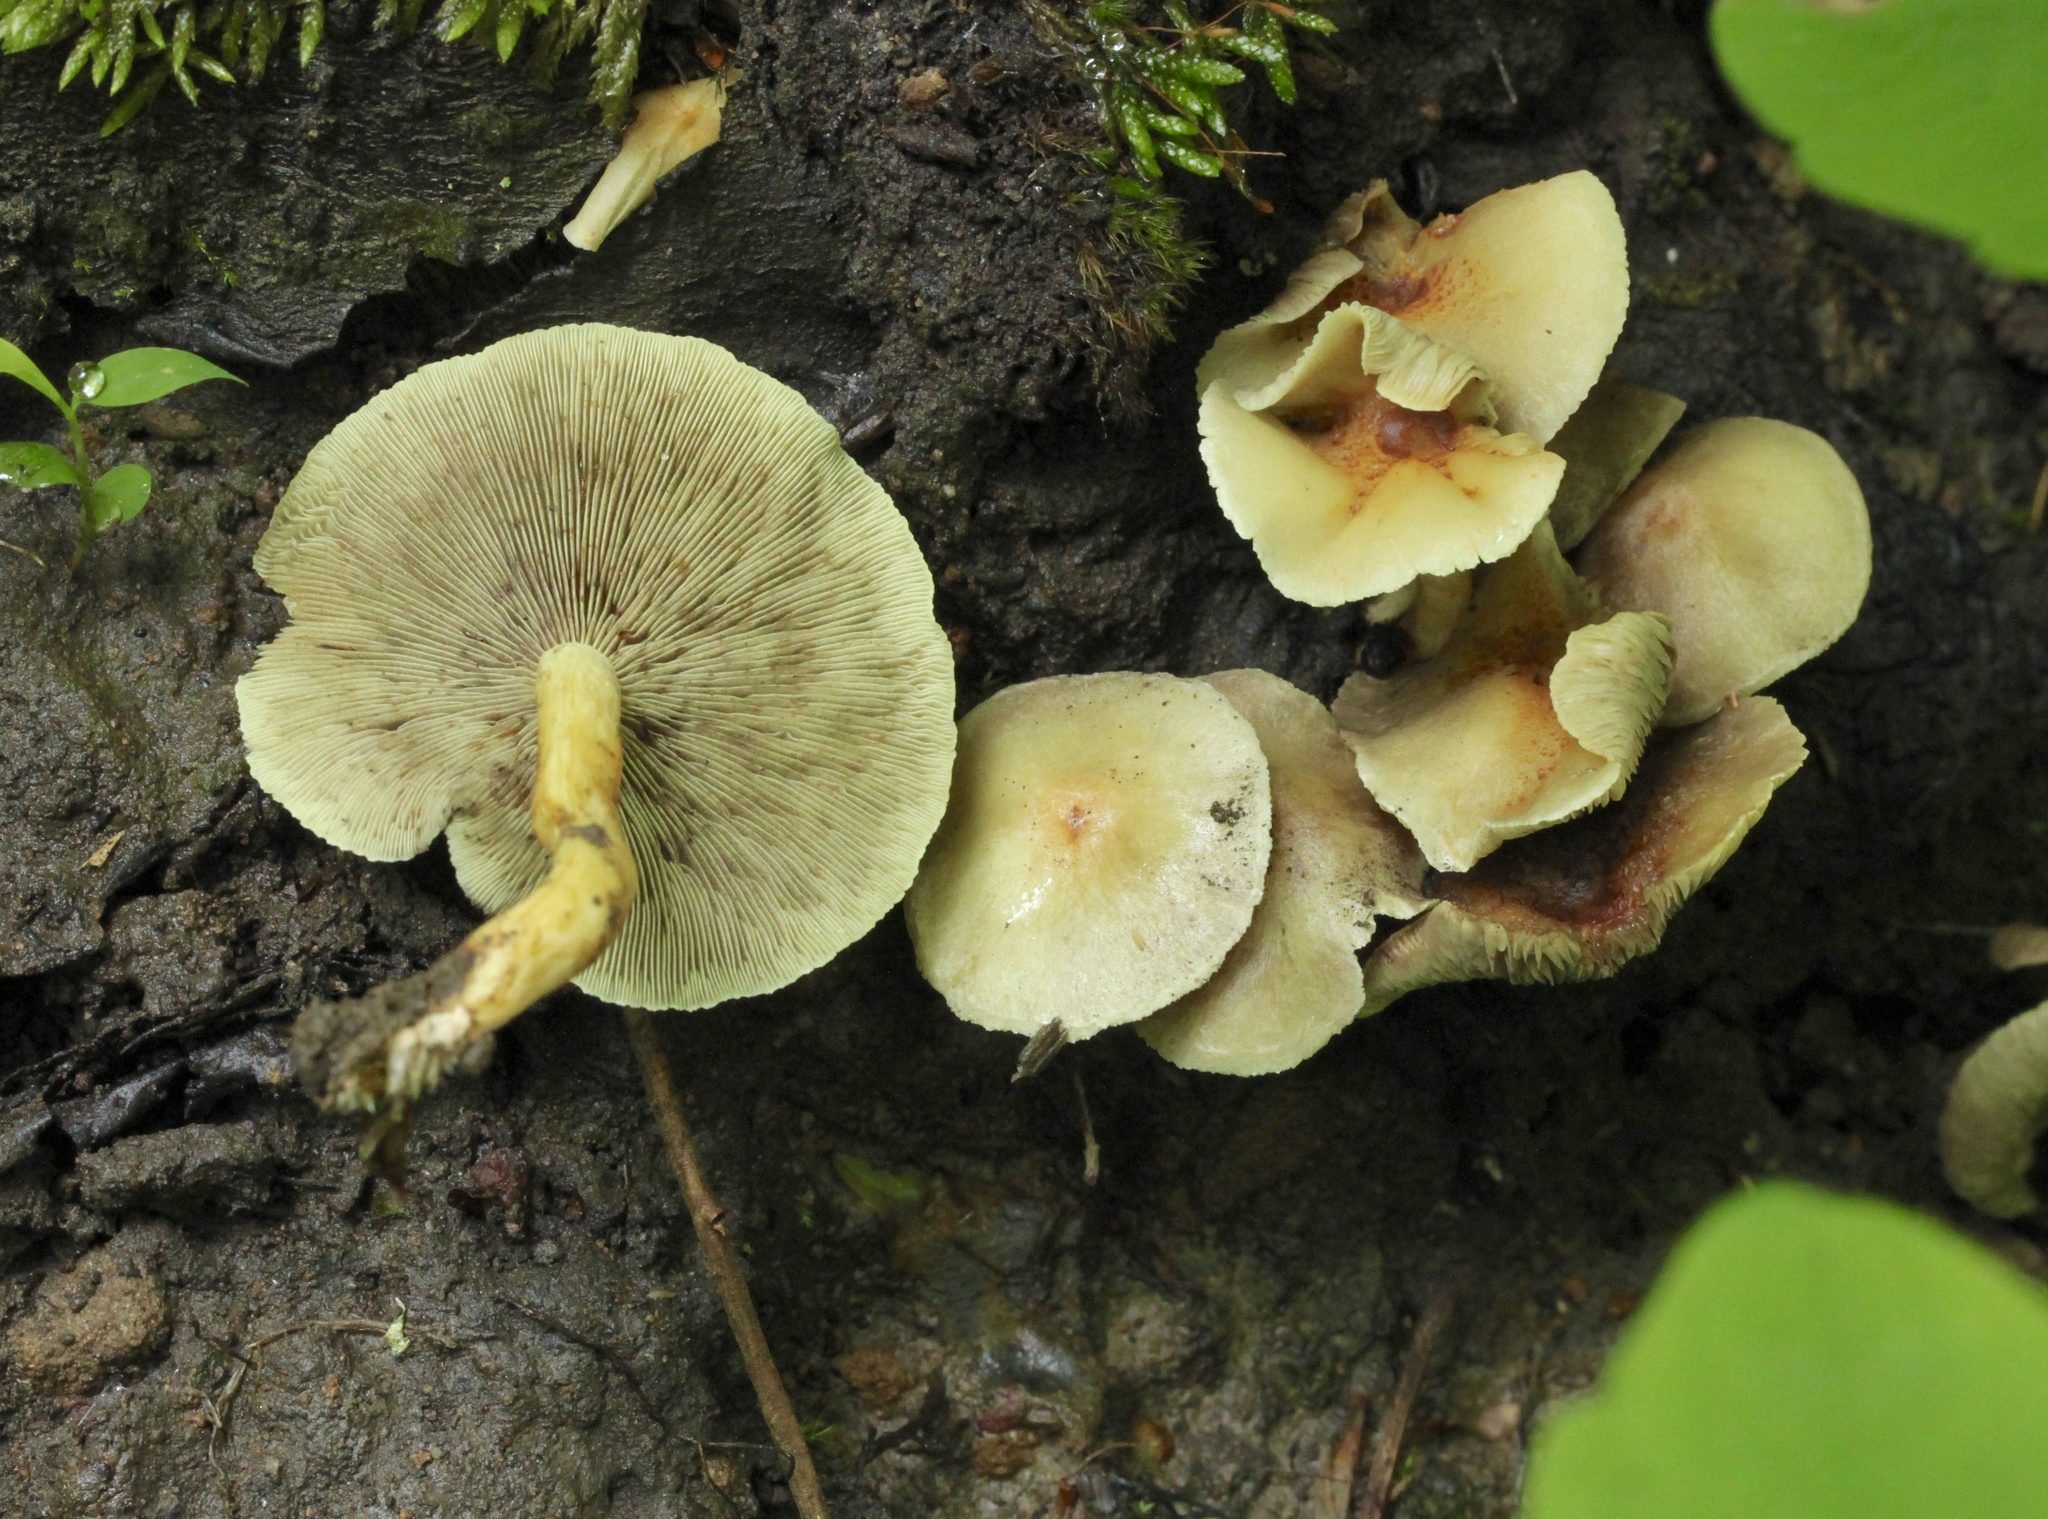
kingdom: Fungi
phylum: Basidiomycota
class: Agaricomycetes
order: Agaricales
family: Strophariaceae
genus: Hypholoma
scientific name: Hypholoma fasciculare
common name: Sulphur tuft
